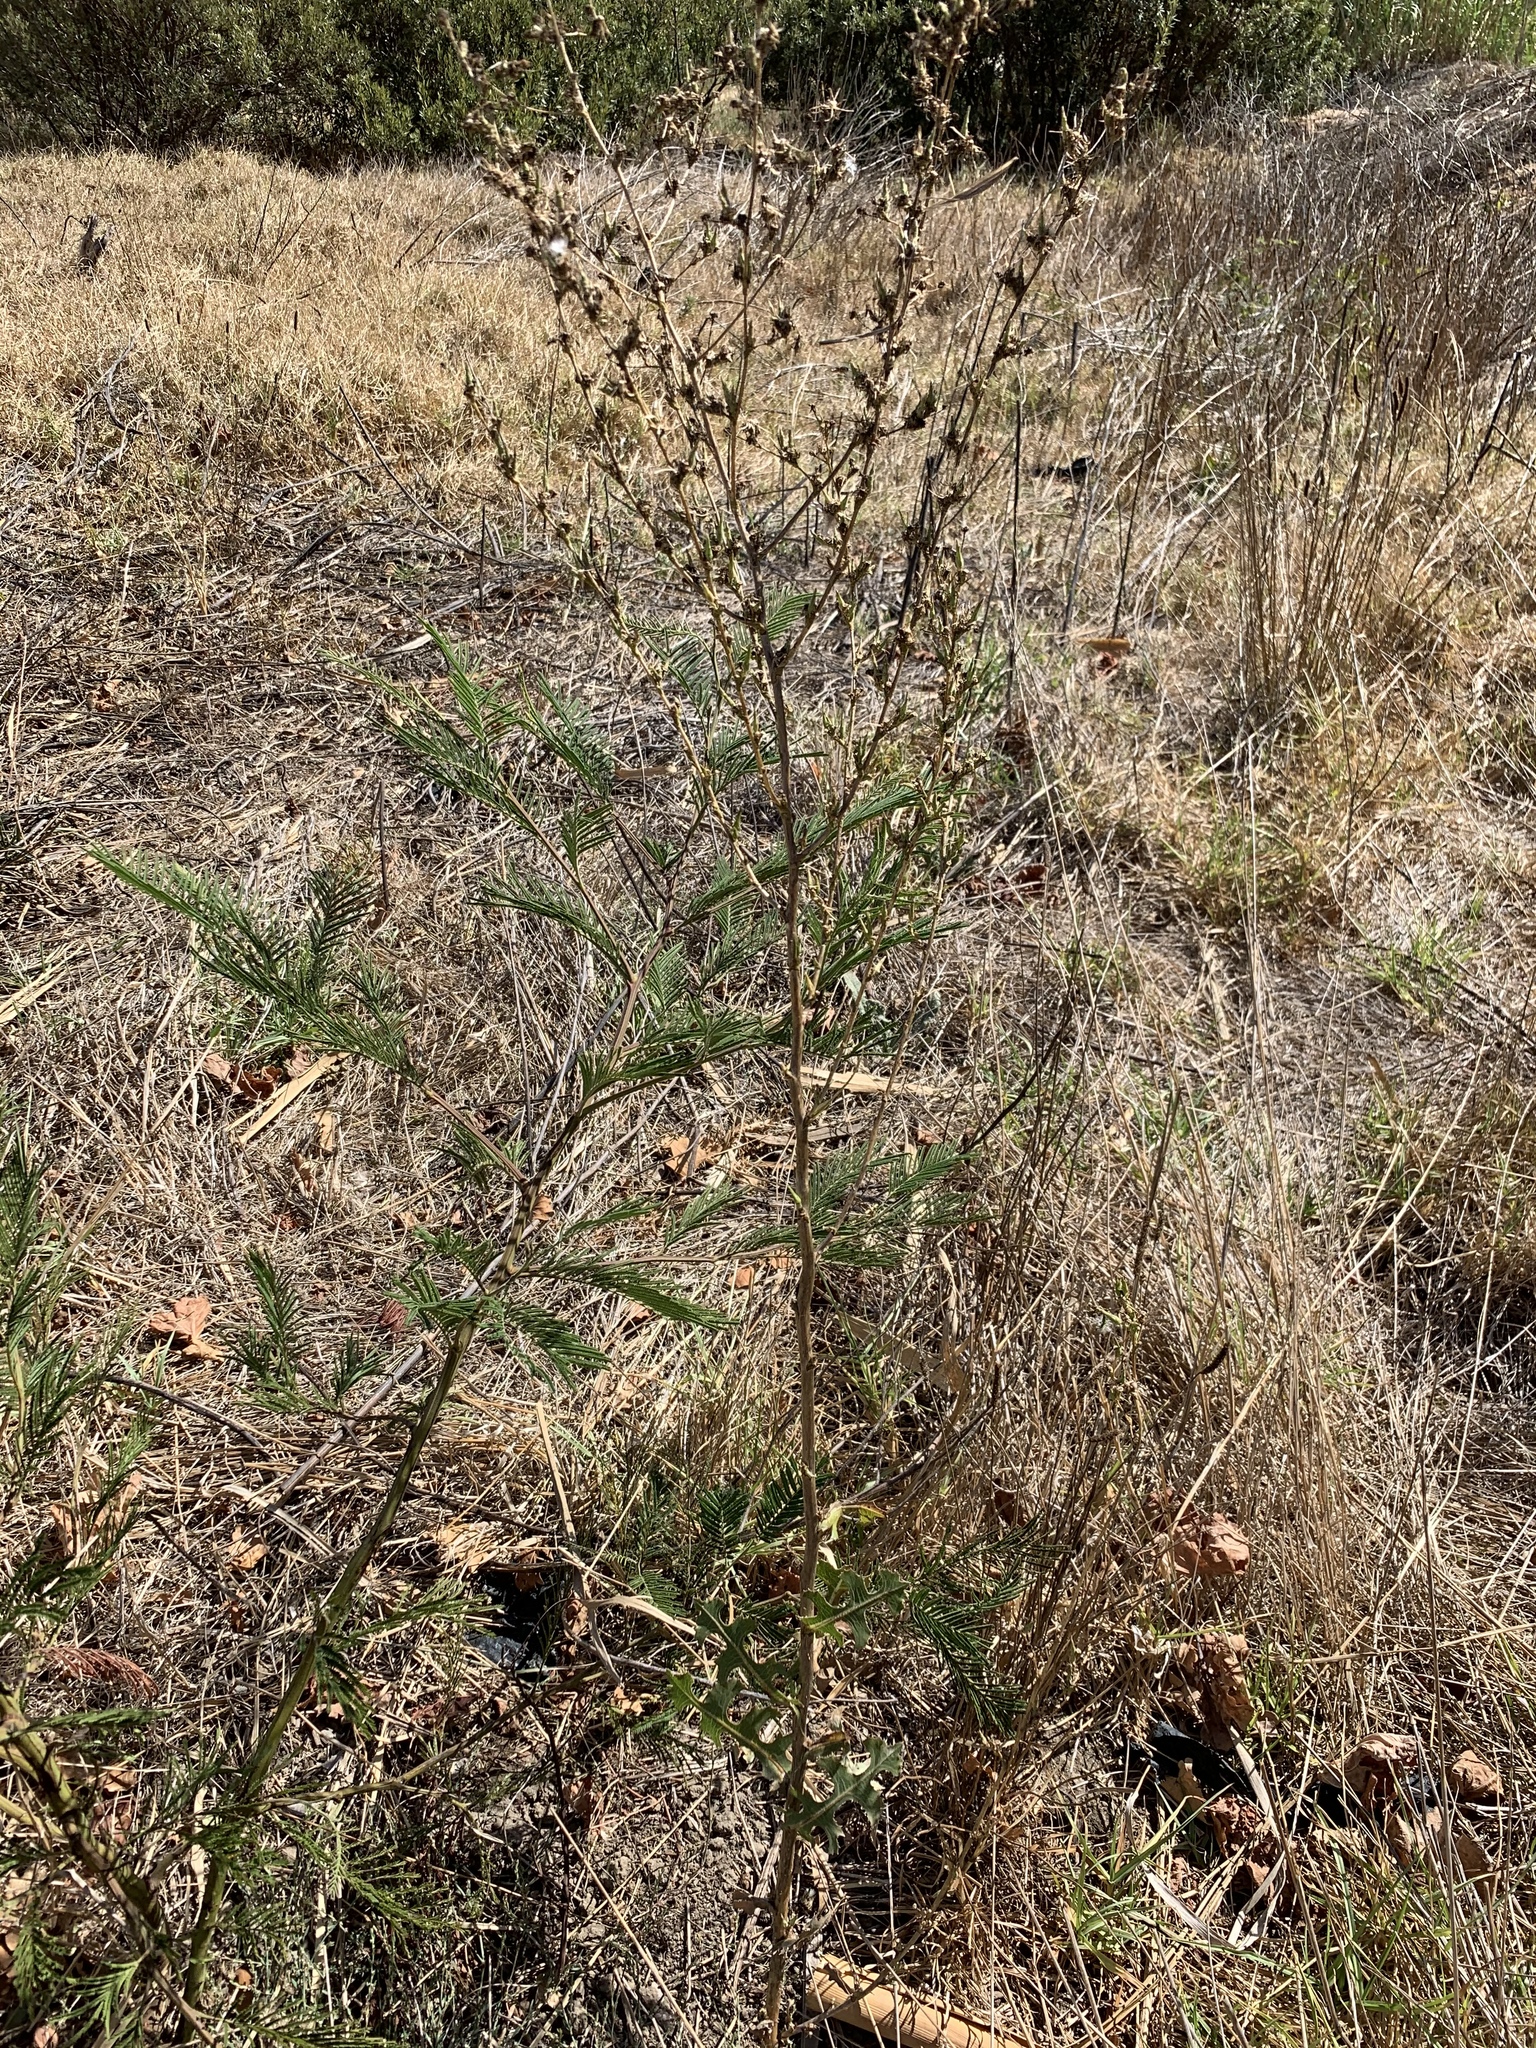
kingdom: Plantae
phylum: Tracheophyta
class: Magnoliopsida
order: Asterales
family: Asteraceae
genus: Lactuca
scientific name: Lactuca serriola
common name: Prickly lettuce
